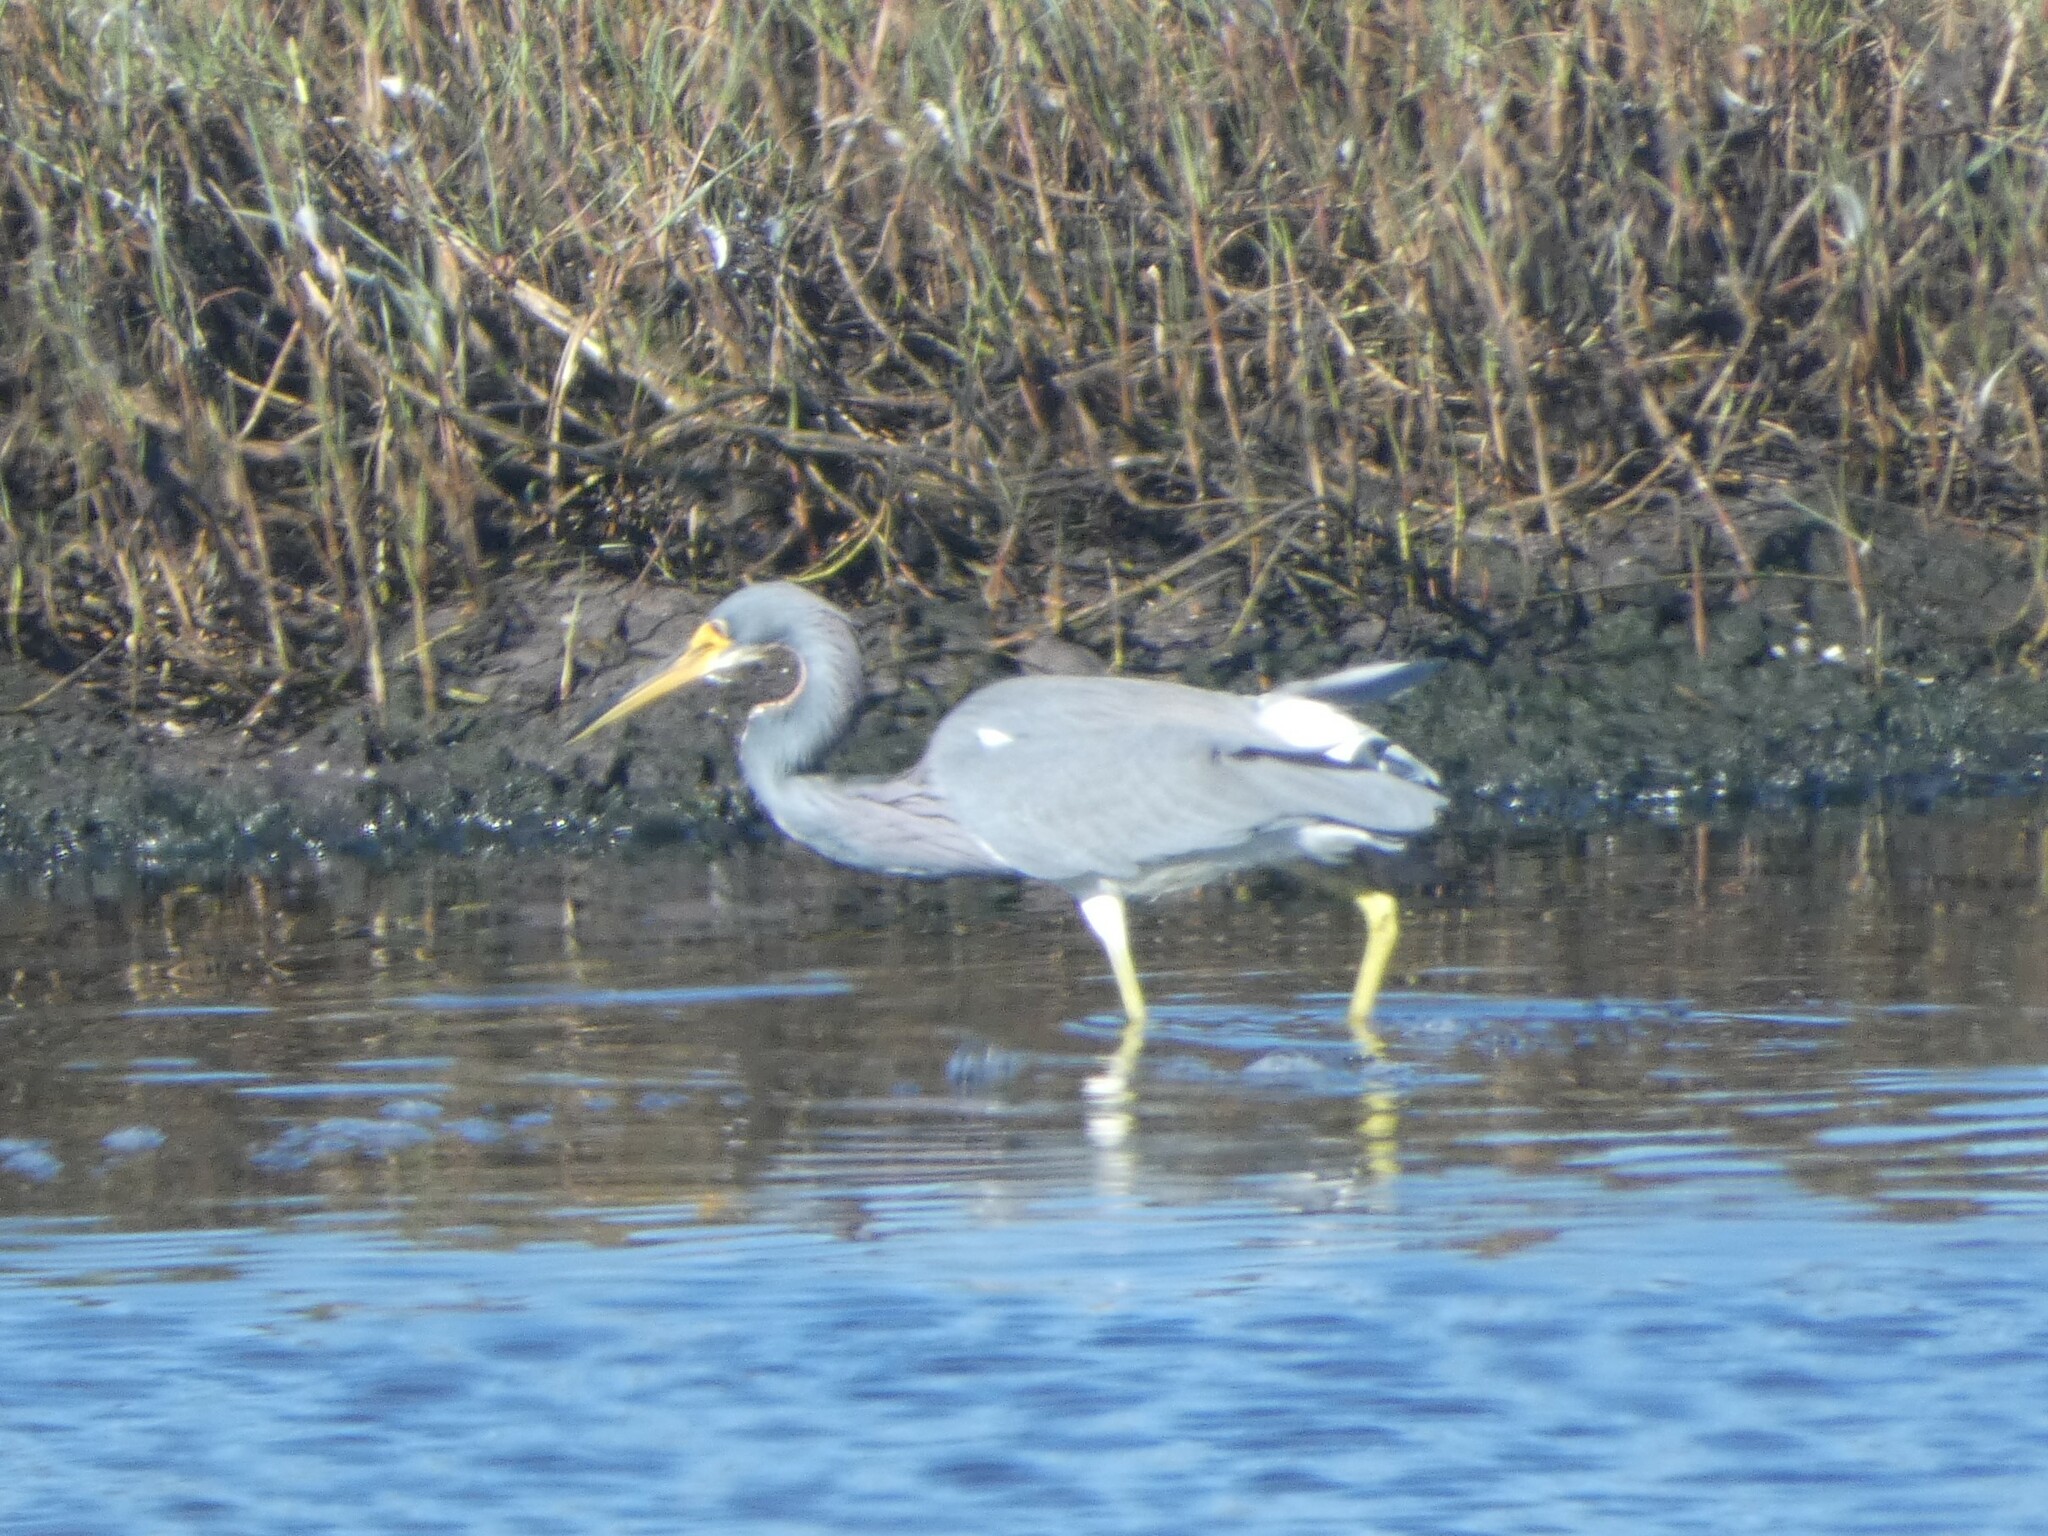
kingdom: Animalia
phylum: Chordata
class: Aves
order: Pelecaniformes
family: Ardeidae
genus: Egretta
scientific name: Egretta tricolor
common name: Tricolored heron
